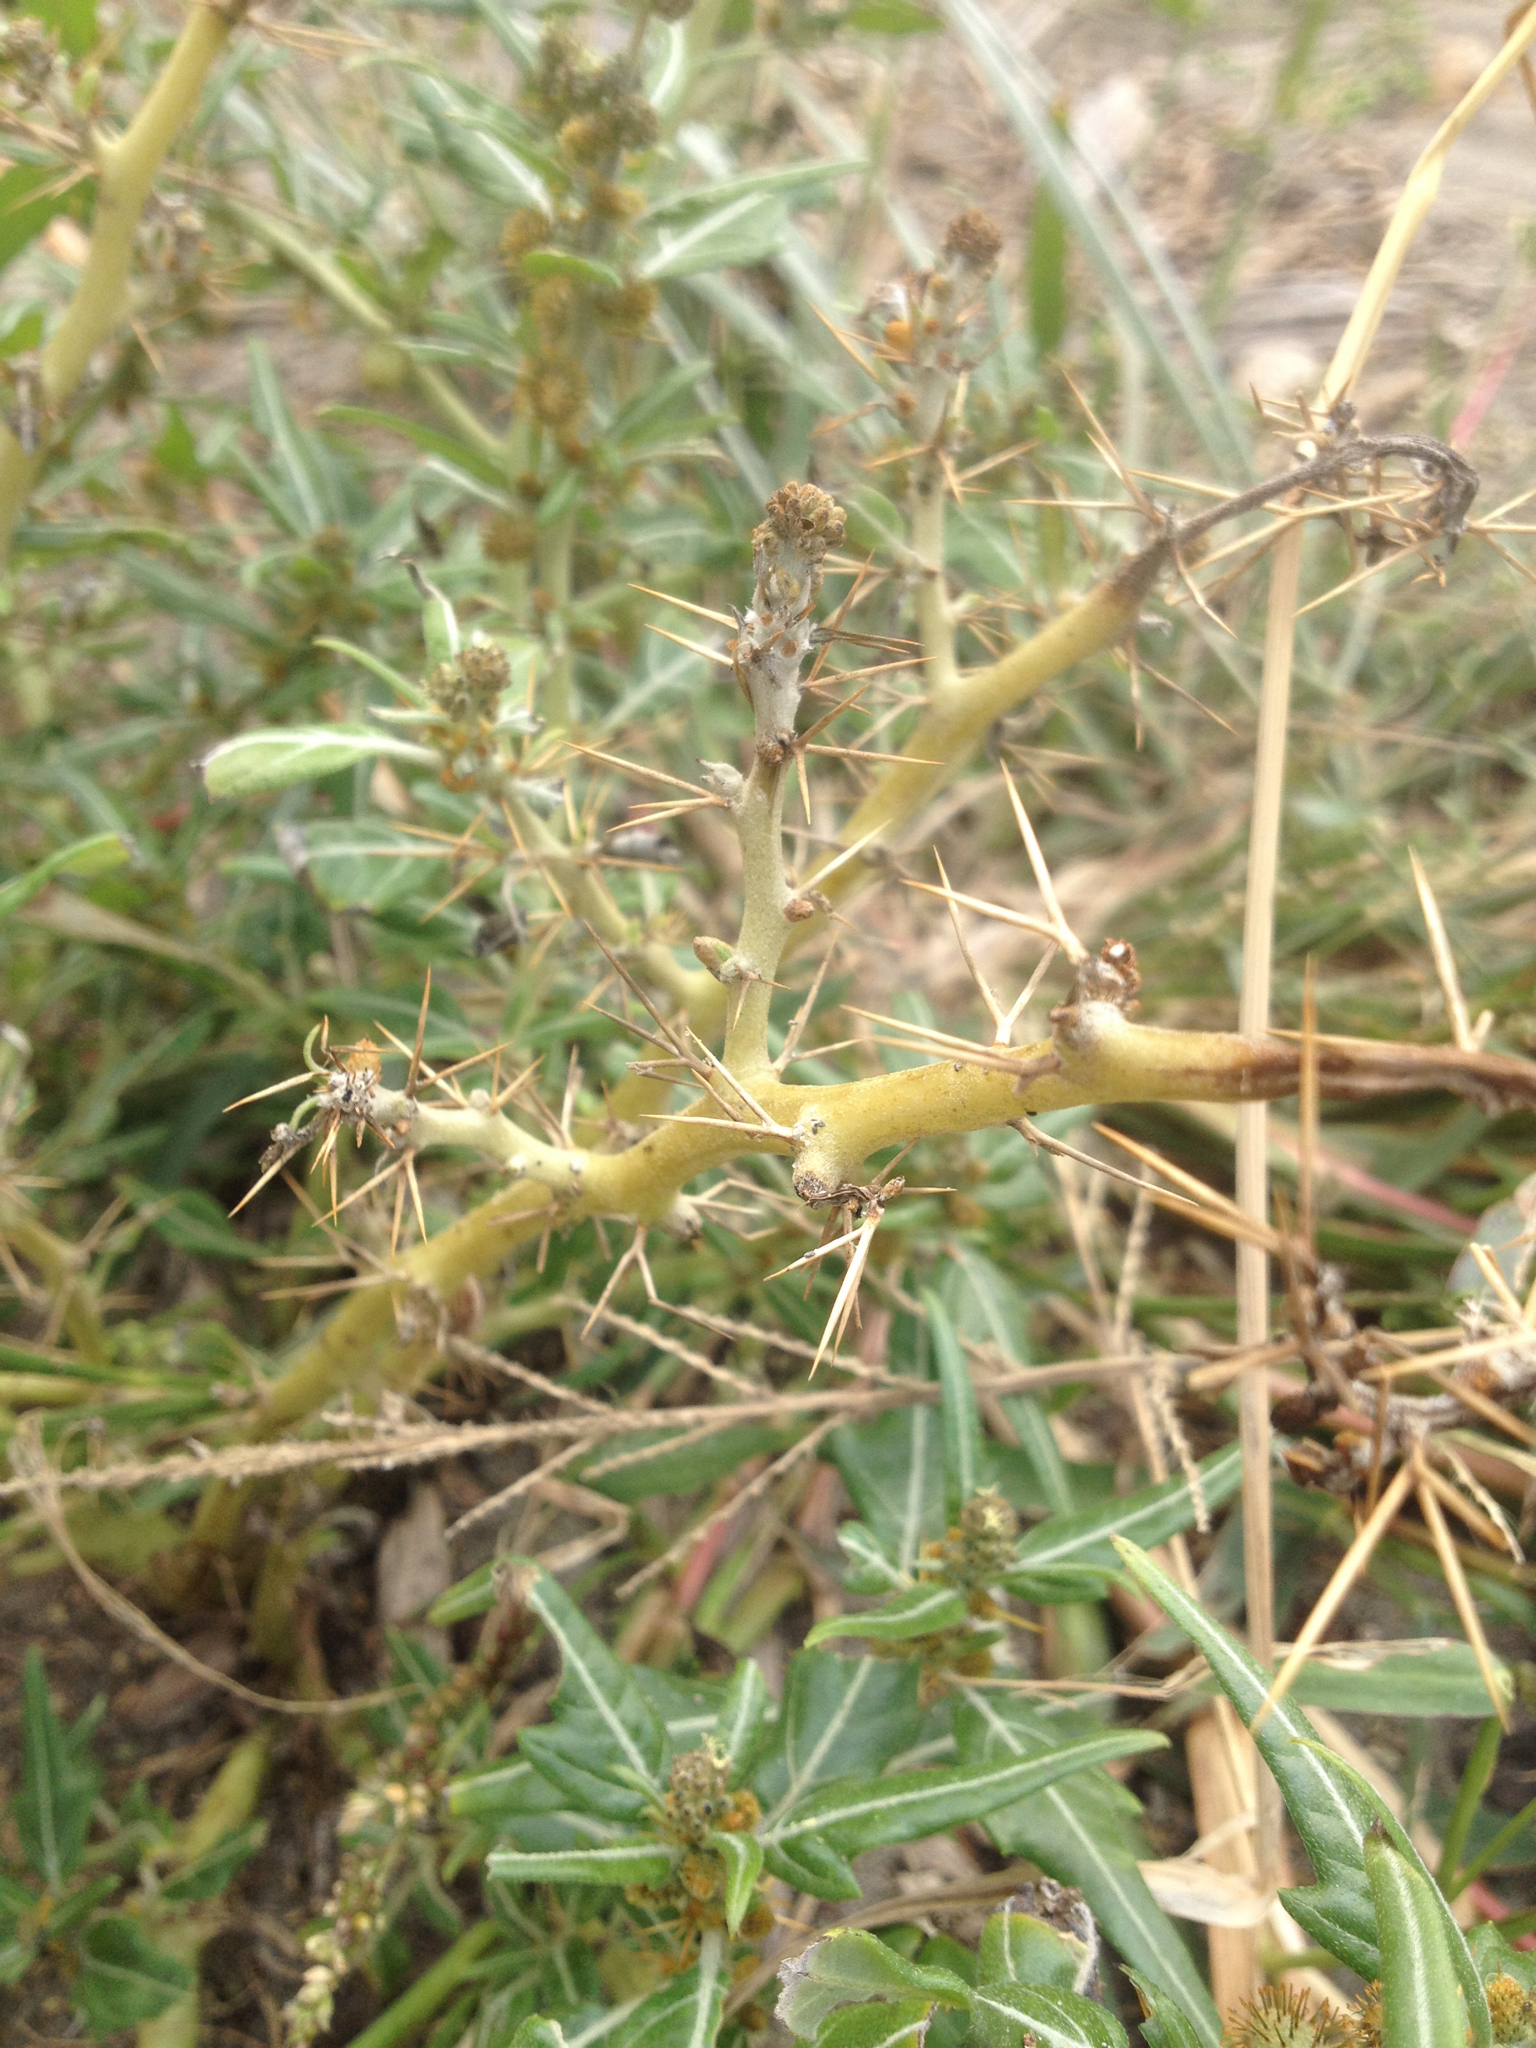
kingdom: Plantae
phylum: Tracheophyta
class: Magnoliopsida
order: Asterales
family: Asteraceae
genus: Xanthium
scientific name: Xanthium spinosum
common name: Spiny cocklebur
